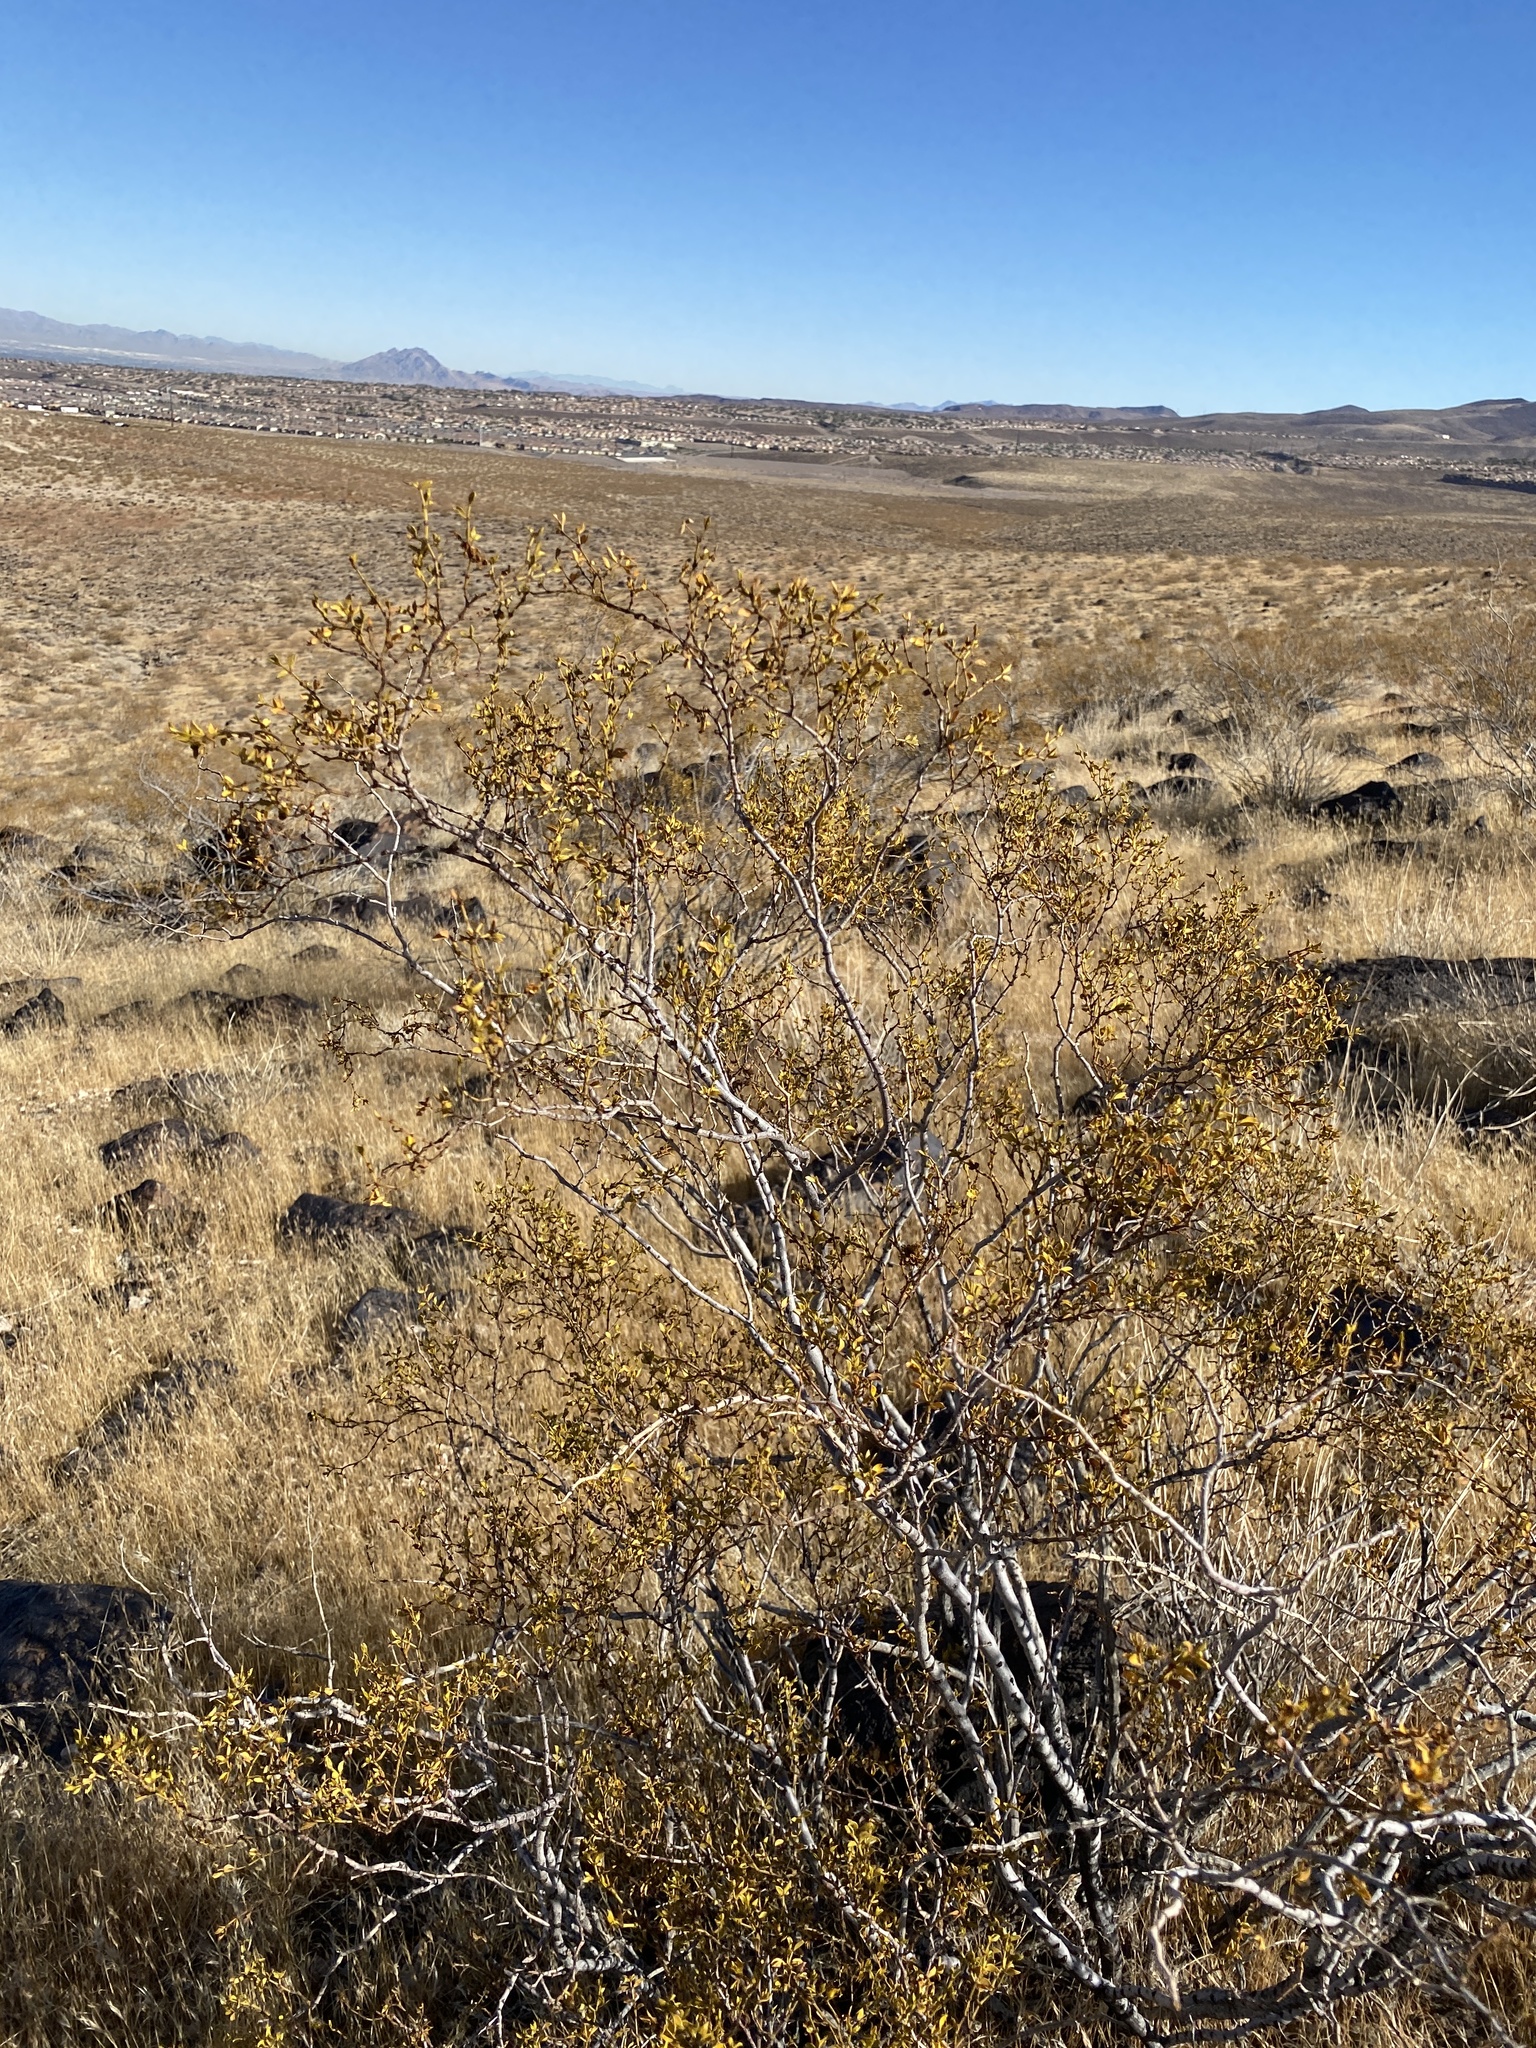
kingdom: Plantae
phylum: Tracheophyta
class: Magnoliopsida
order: Zygophyllales
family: Zygophyllaceae
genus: Larrea
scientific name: Larrea tridentata
